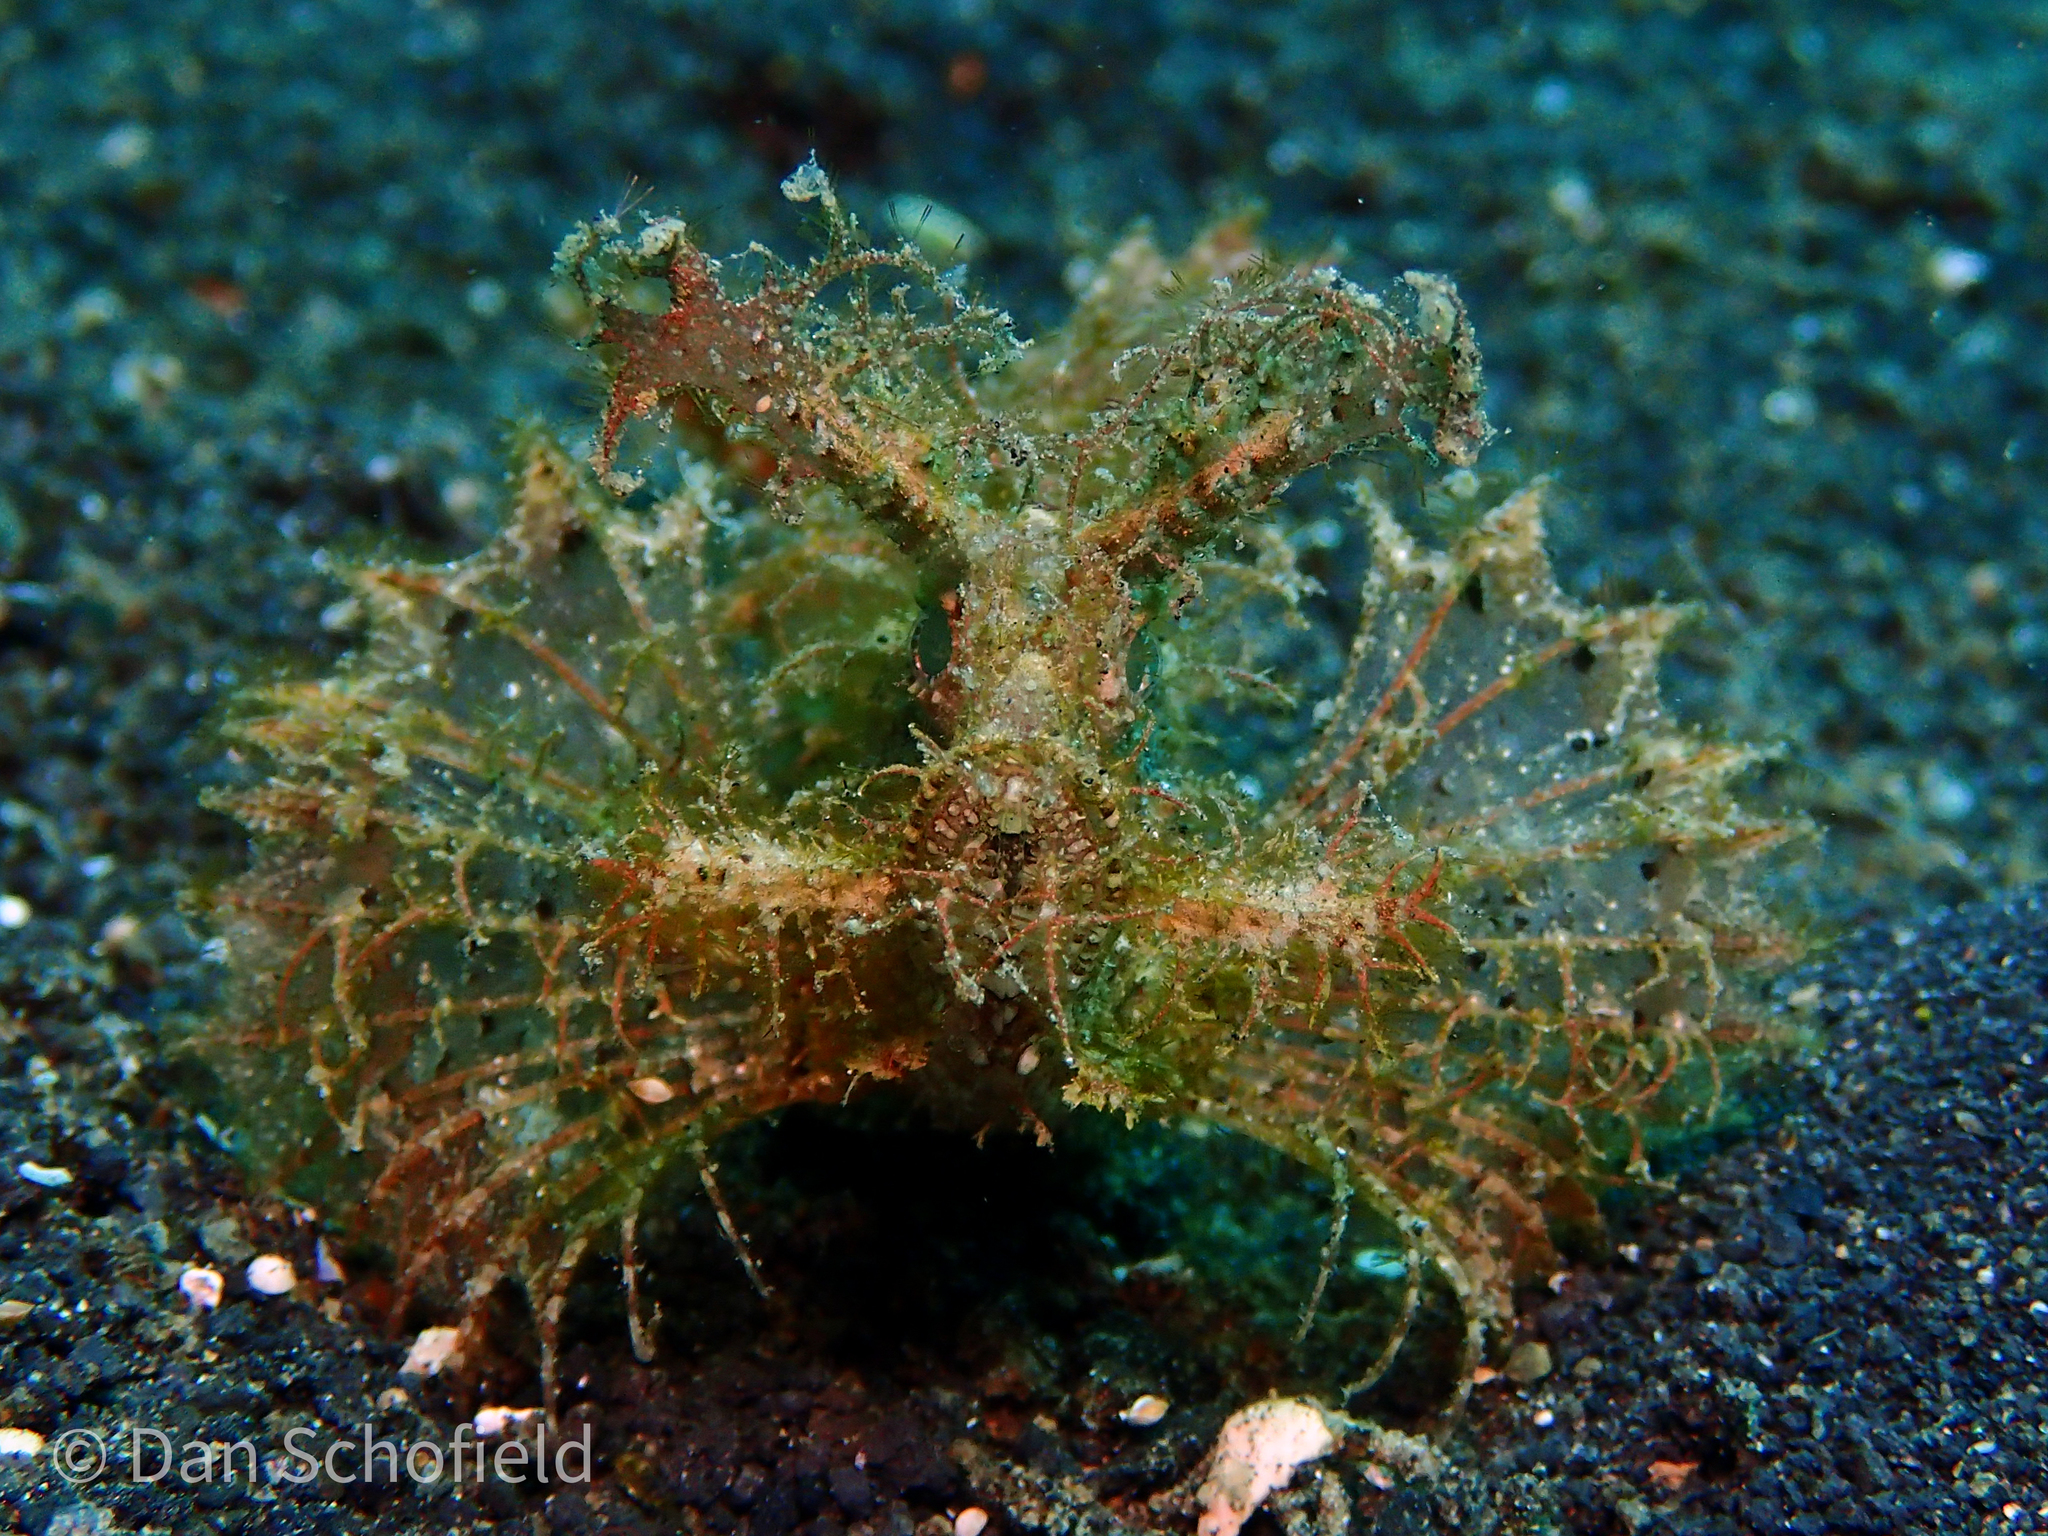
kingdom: Animalia
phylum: Chordata
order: Scorpaeniformes
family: Scorpaenidae
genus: Pteroidichthys
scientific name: Pteroidichthys amboinensis
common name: Ambon scorpionfish
